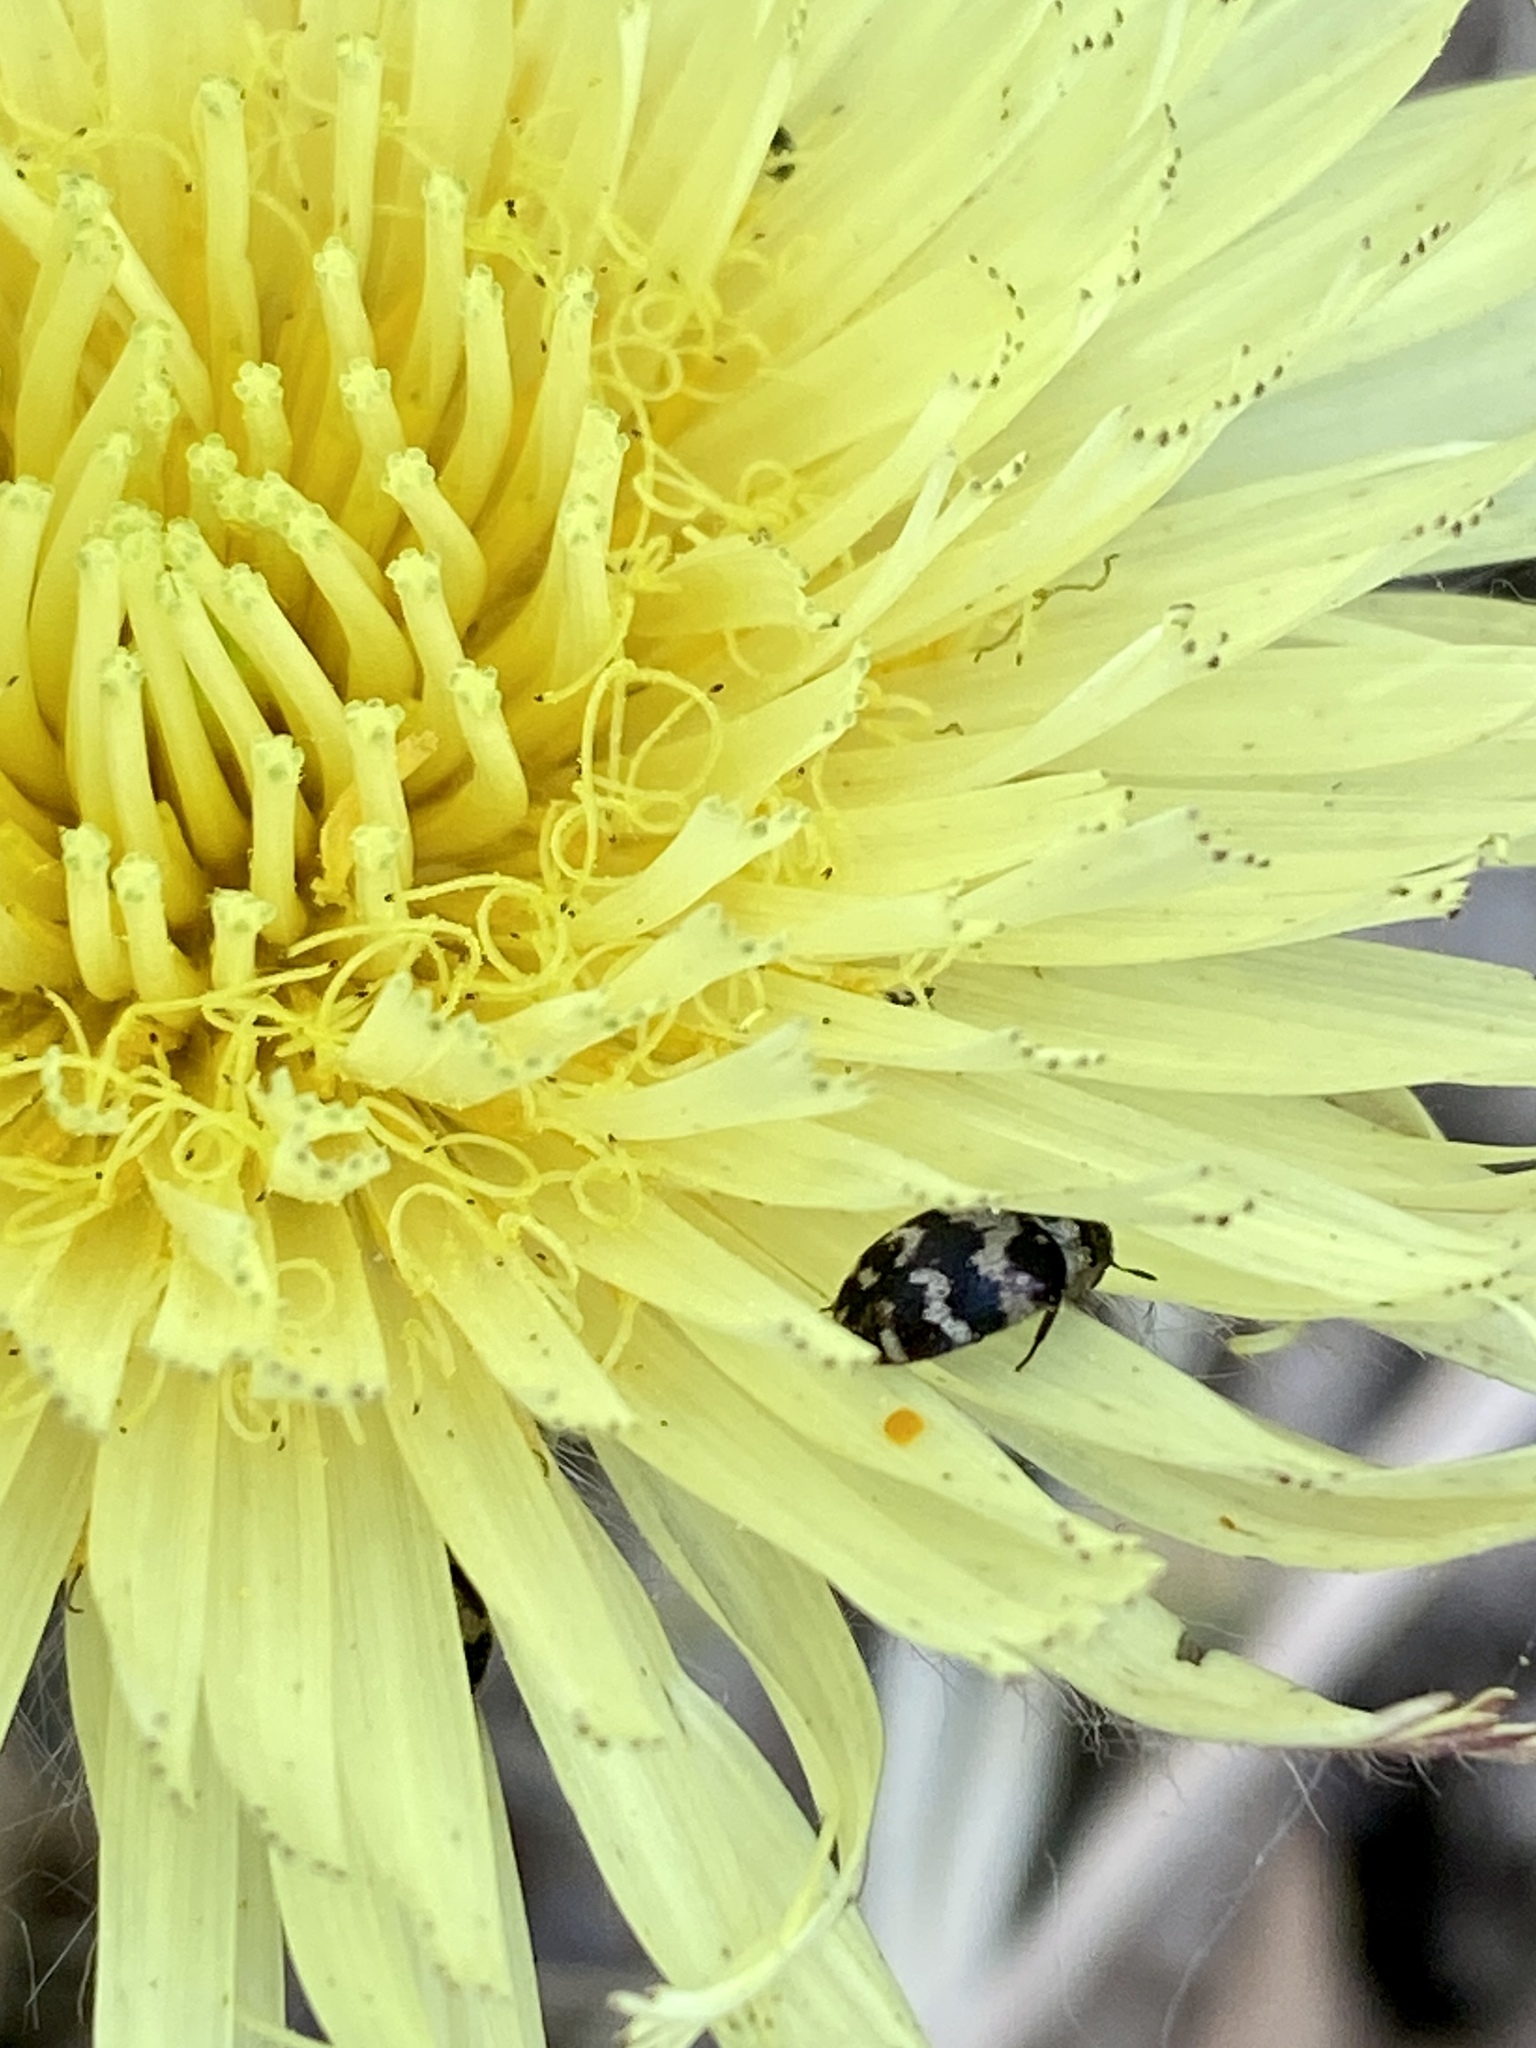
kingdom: Animalia
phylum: Arthropoda
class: Insecta
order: Coleoptera
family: Dermestidae
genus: Attagenus
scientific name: Attagenus trifasciatus
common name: Carpet beetle
